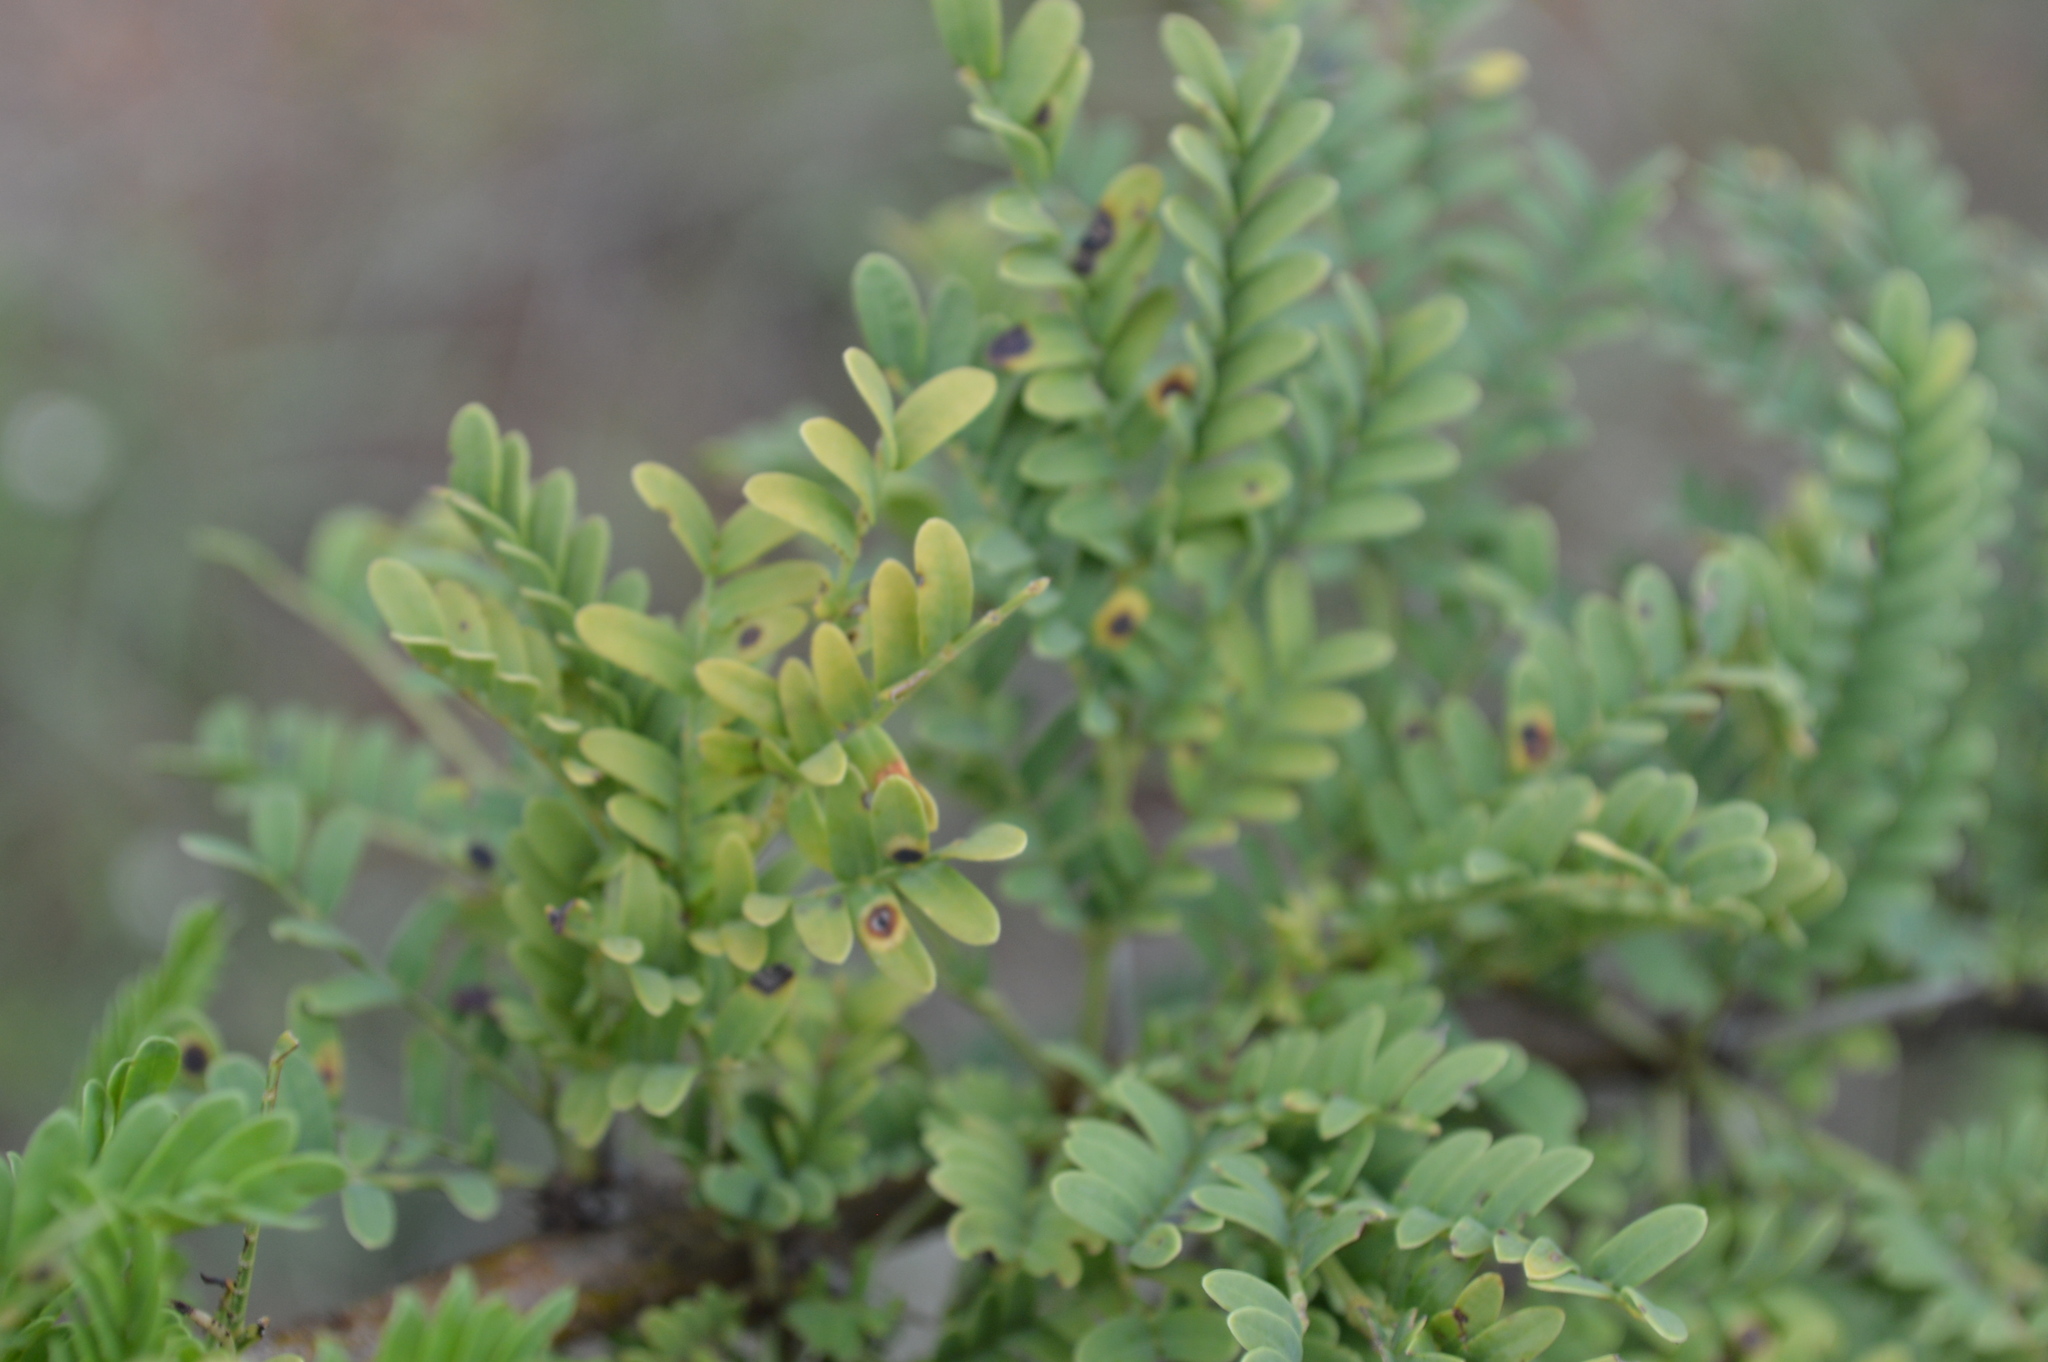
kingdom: Plantae
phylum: Tracheophyta
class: Magnoliopsida
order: Fabales
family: Fabaceae
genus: Vachellia
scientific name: Vachellia karroo
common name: Sweet thorn
